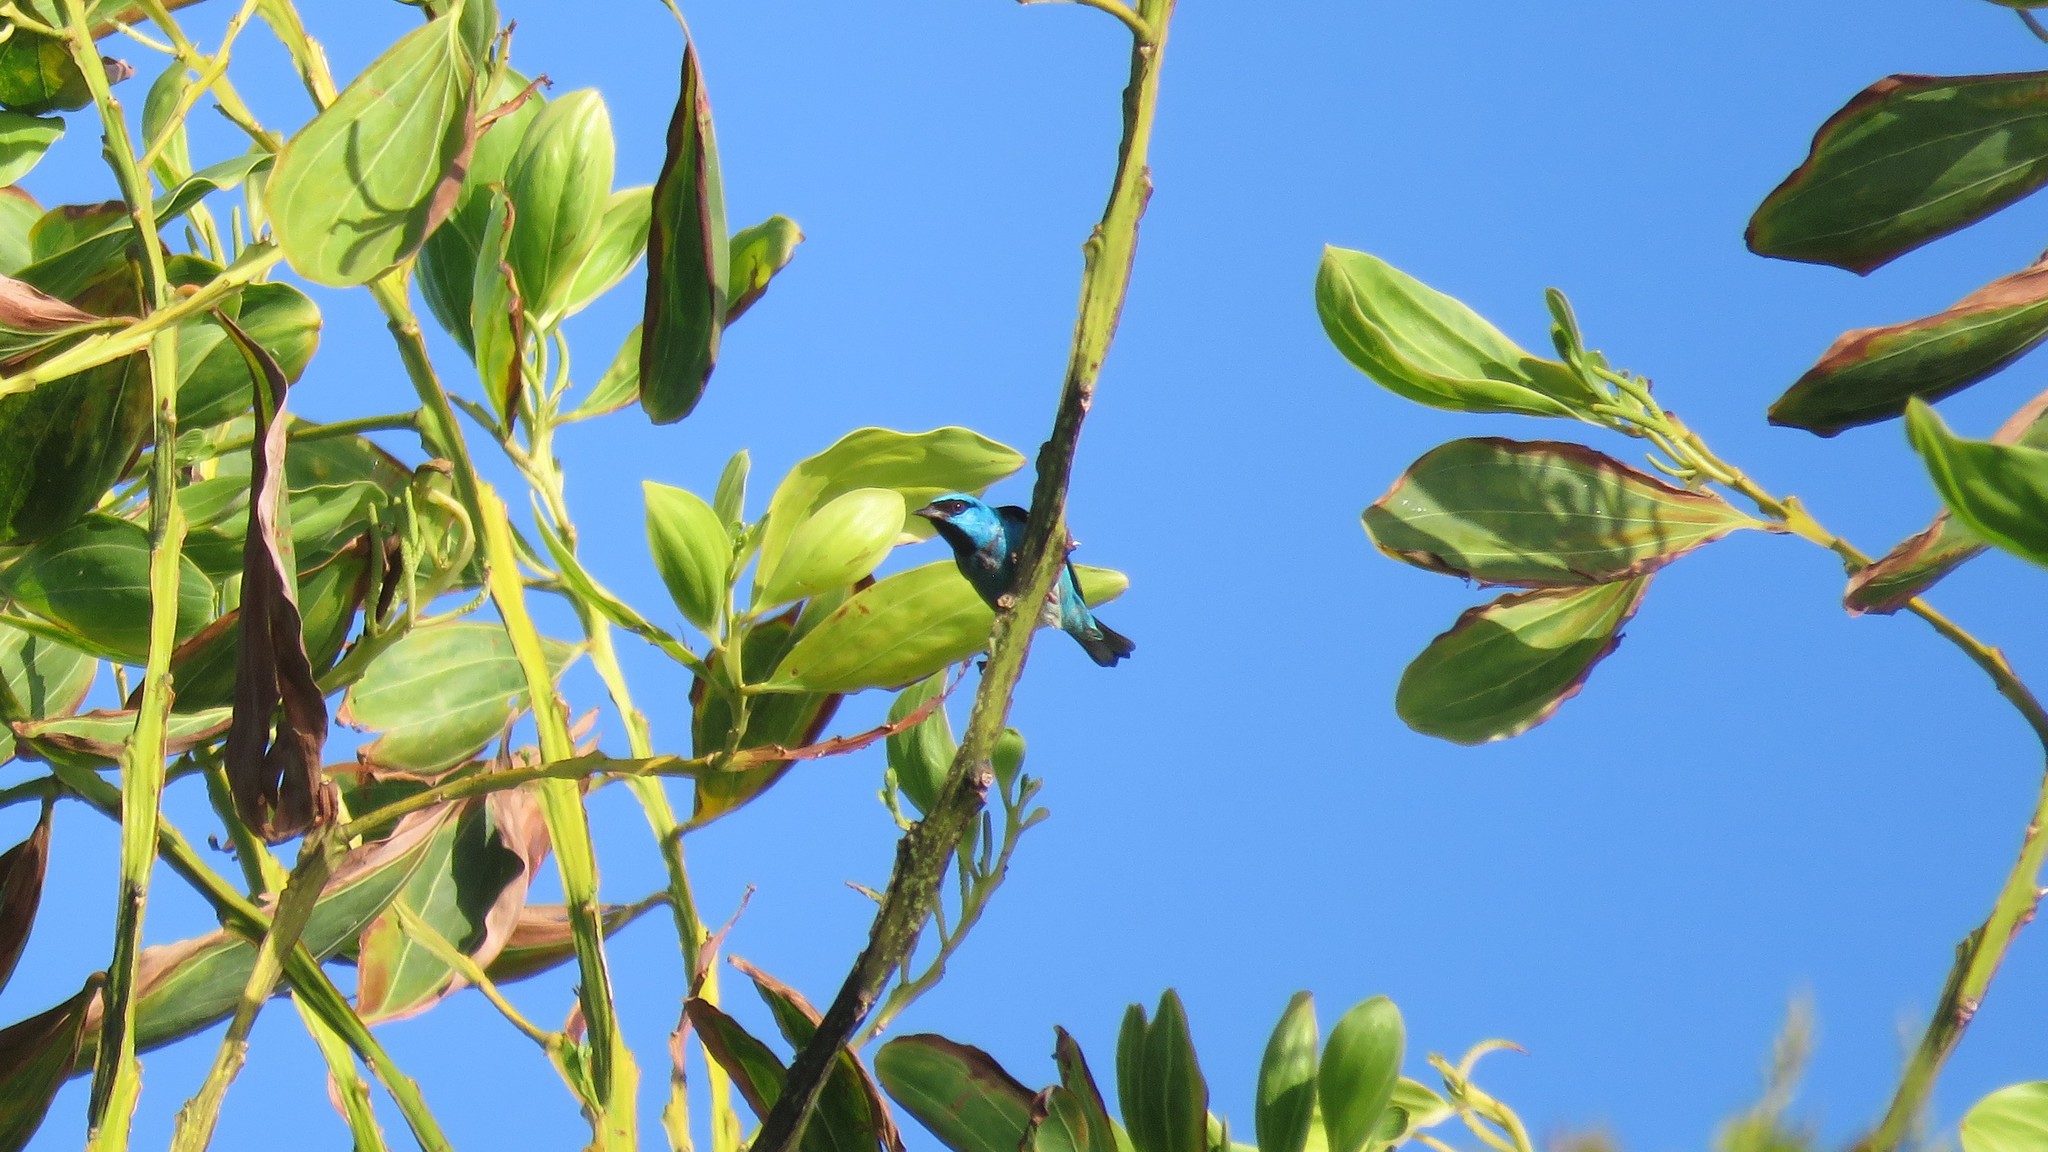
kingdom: Animalia
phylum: Chordata
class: Aves
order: Passeriformes
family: Thraupidae
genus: Dacnis
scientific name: Dacnis cayana
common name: Blue dacnis
